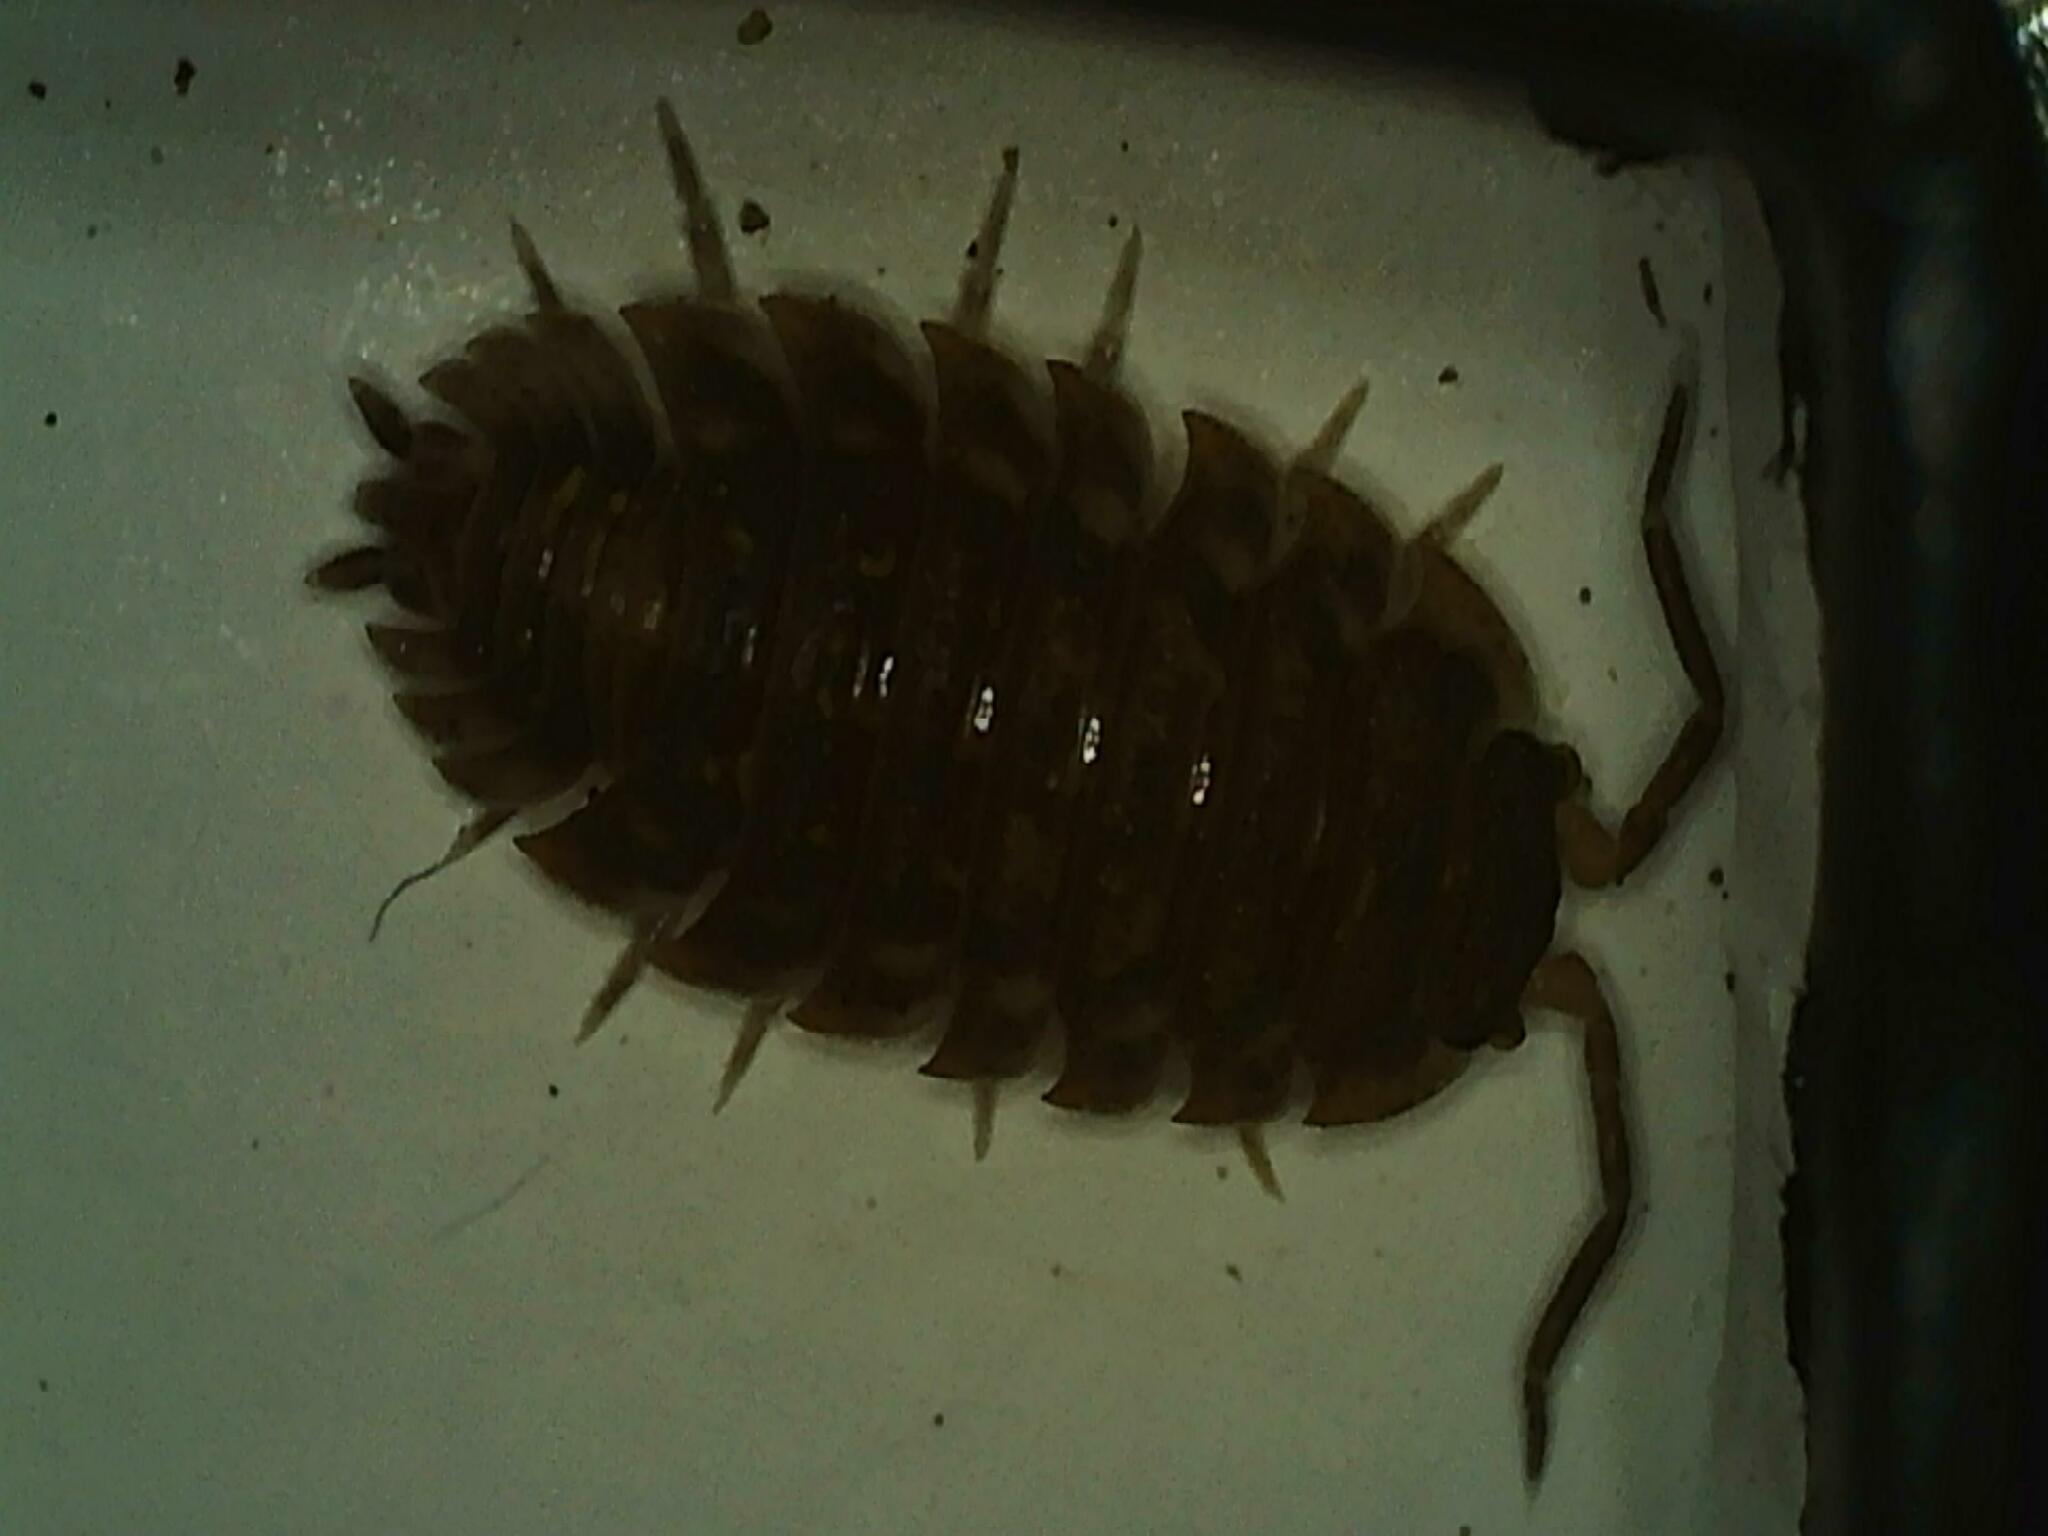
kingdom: Animalia
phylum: Arthropoda
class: Malacostraca
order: Isopoda
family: Oniscidae
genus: Oniscus
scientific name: Oniscus asellus
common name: Common shiny woodlouse
